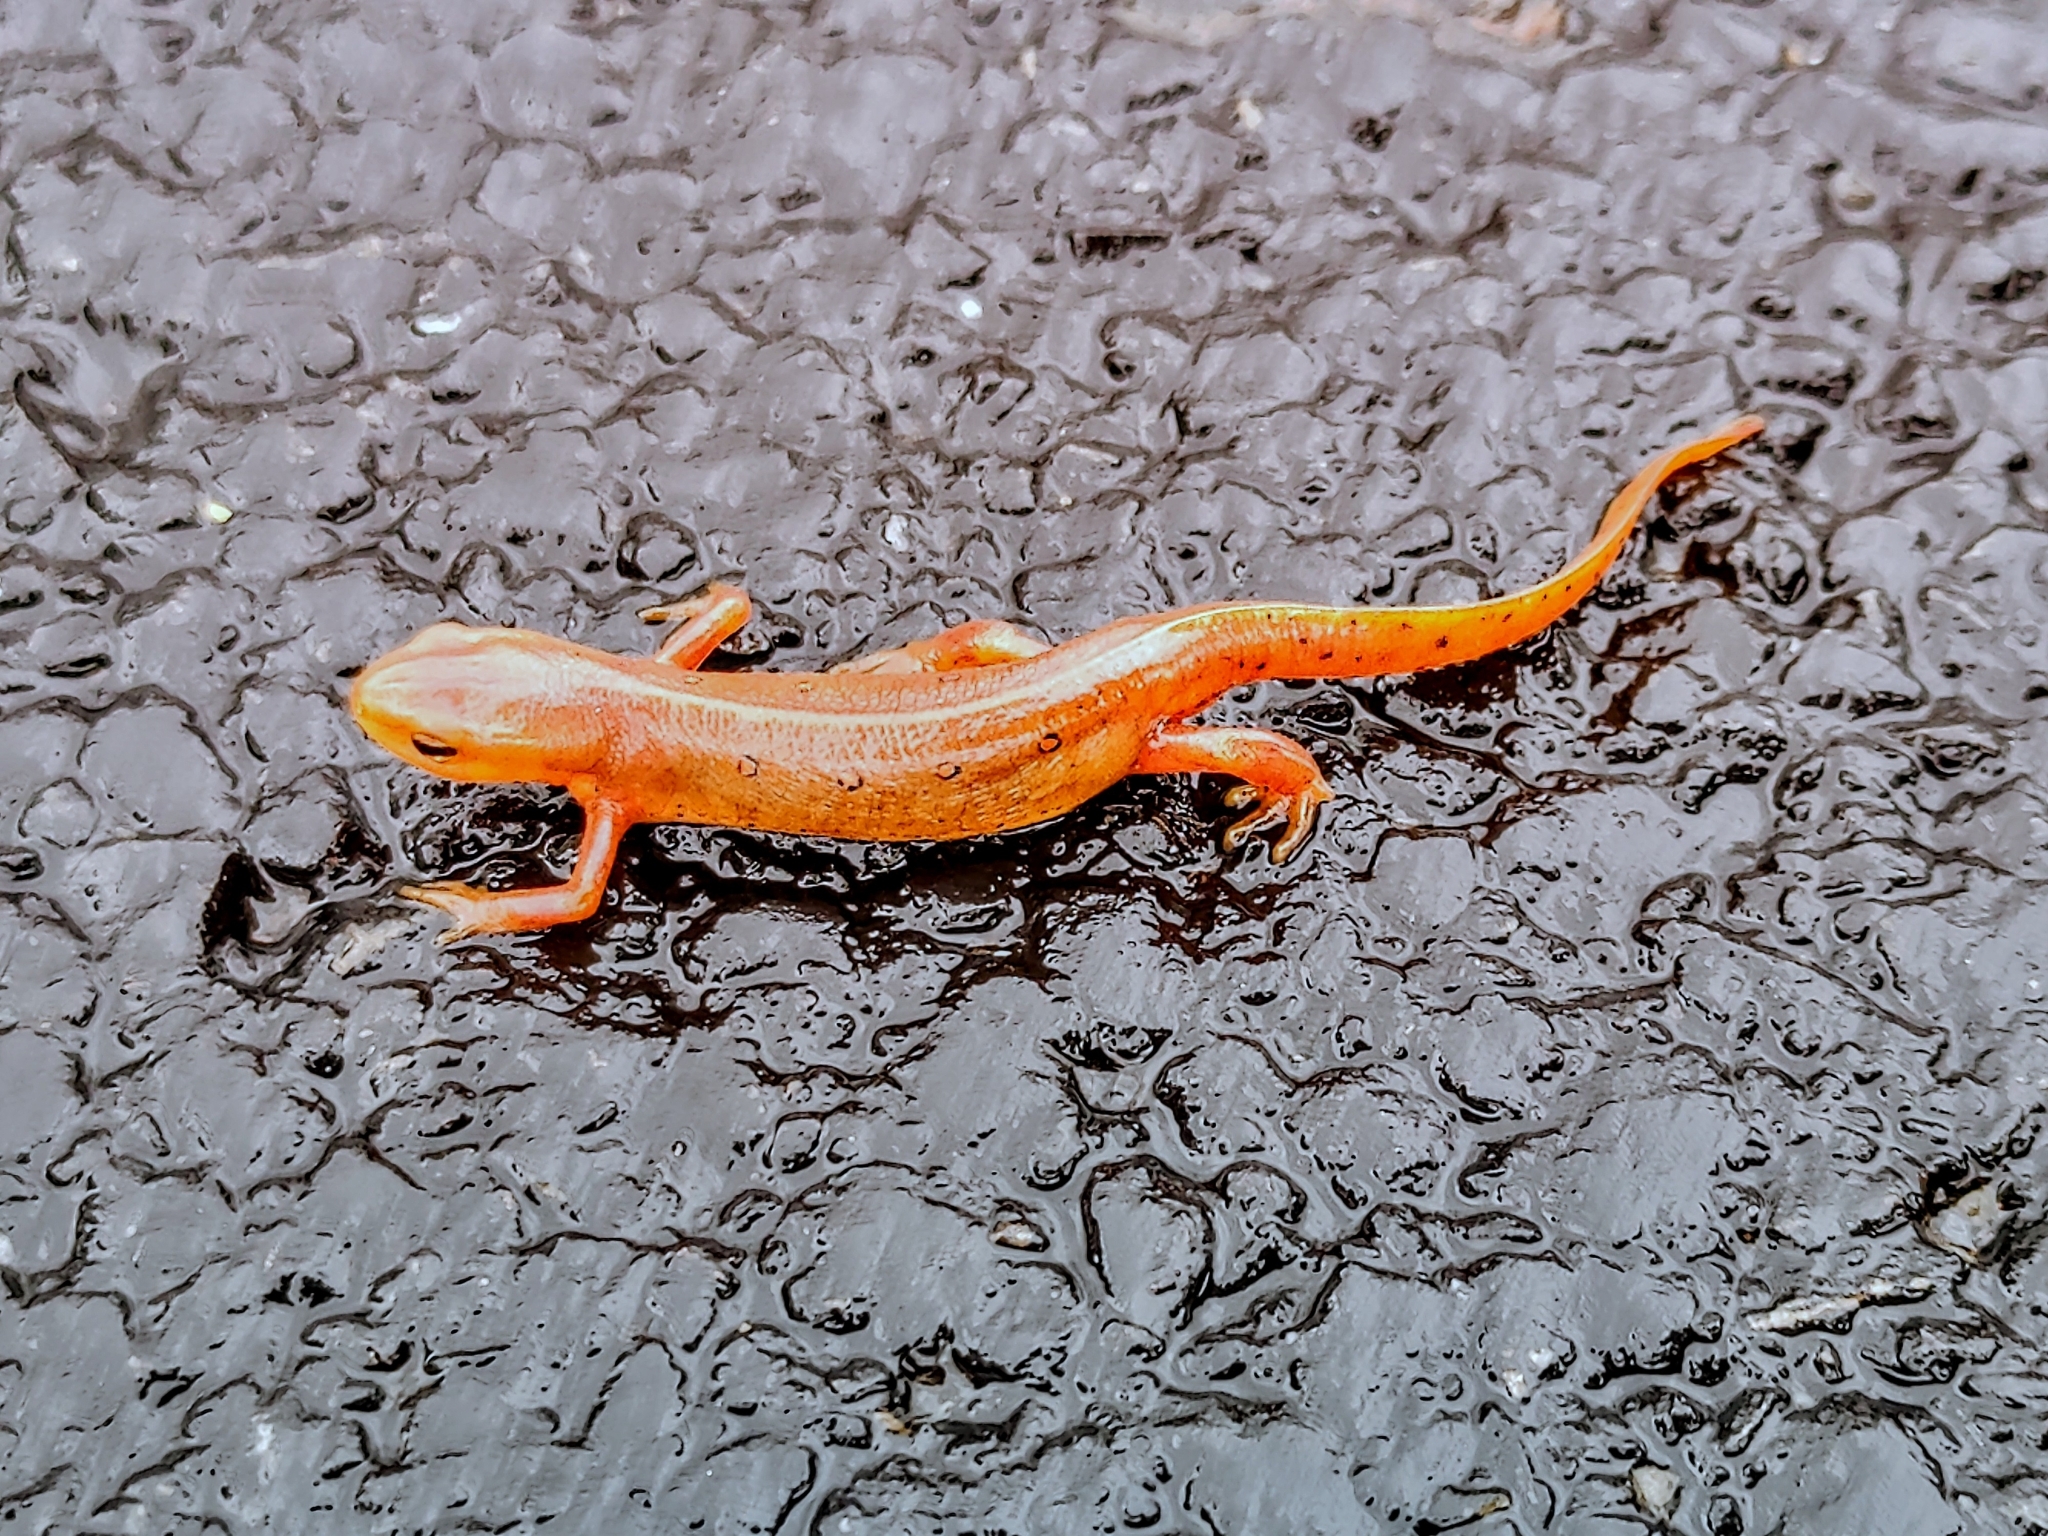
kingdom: Animalia
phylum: Chordata
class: Amphibia
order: Caudata
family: Salamandridae
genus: Notophthalmus
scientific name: Notophthalmus viridescens
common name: Eastern newt
